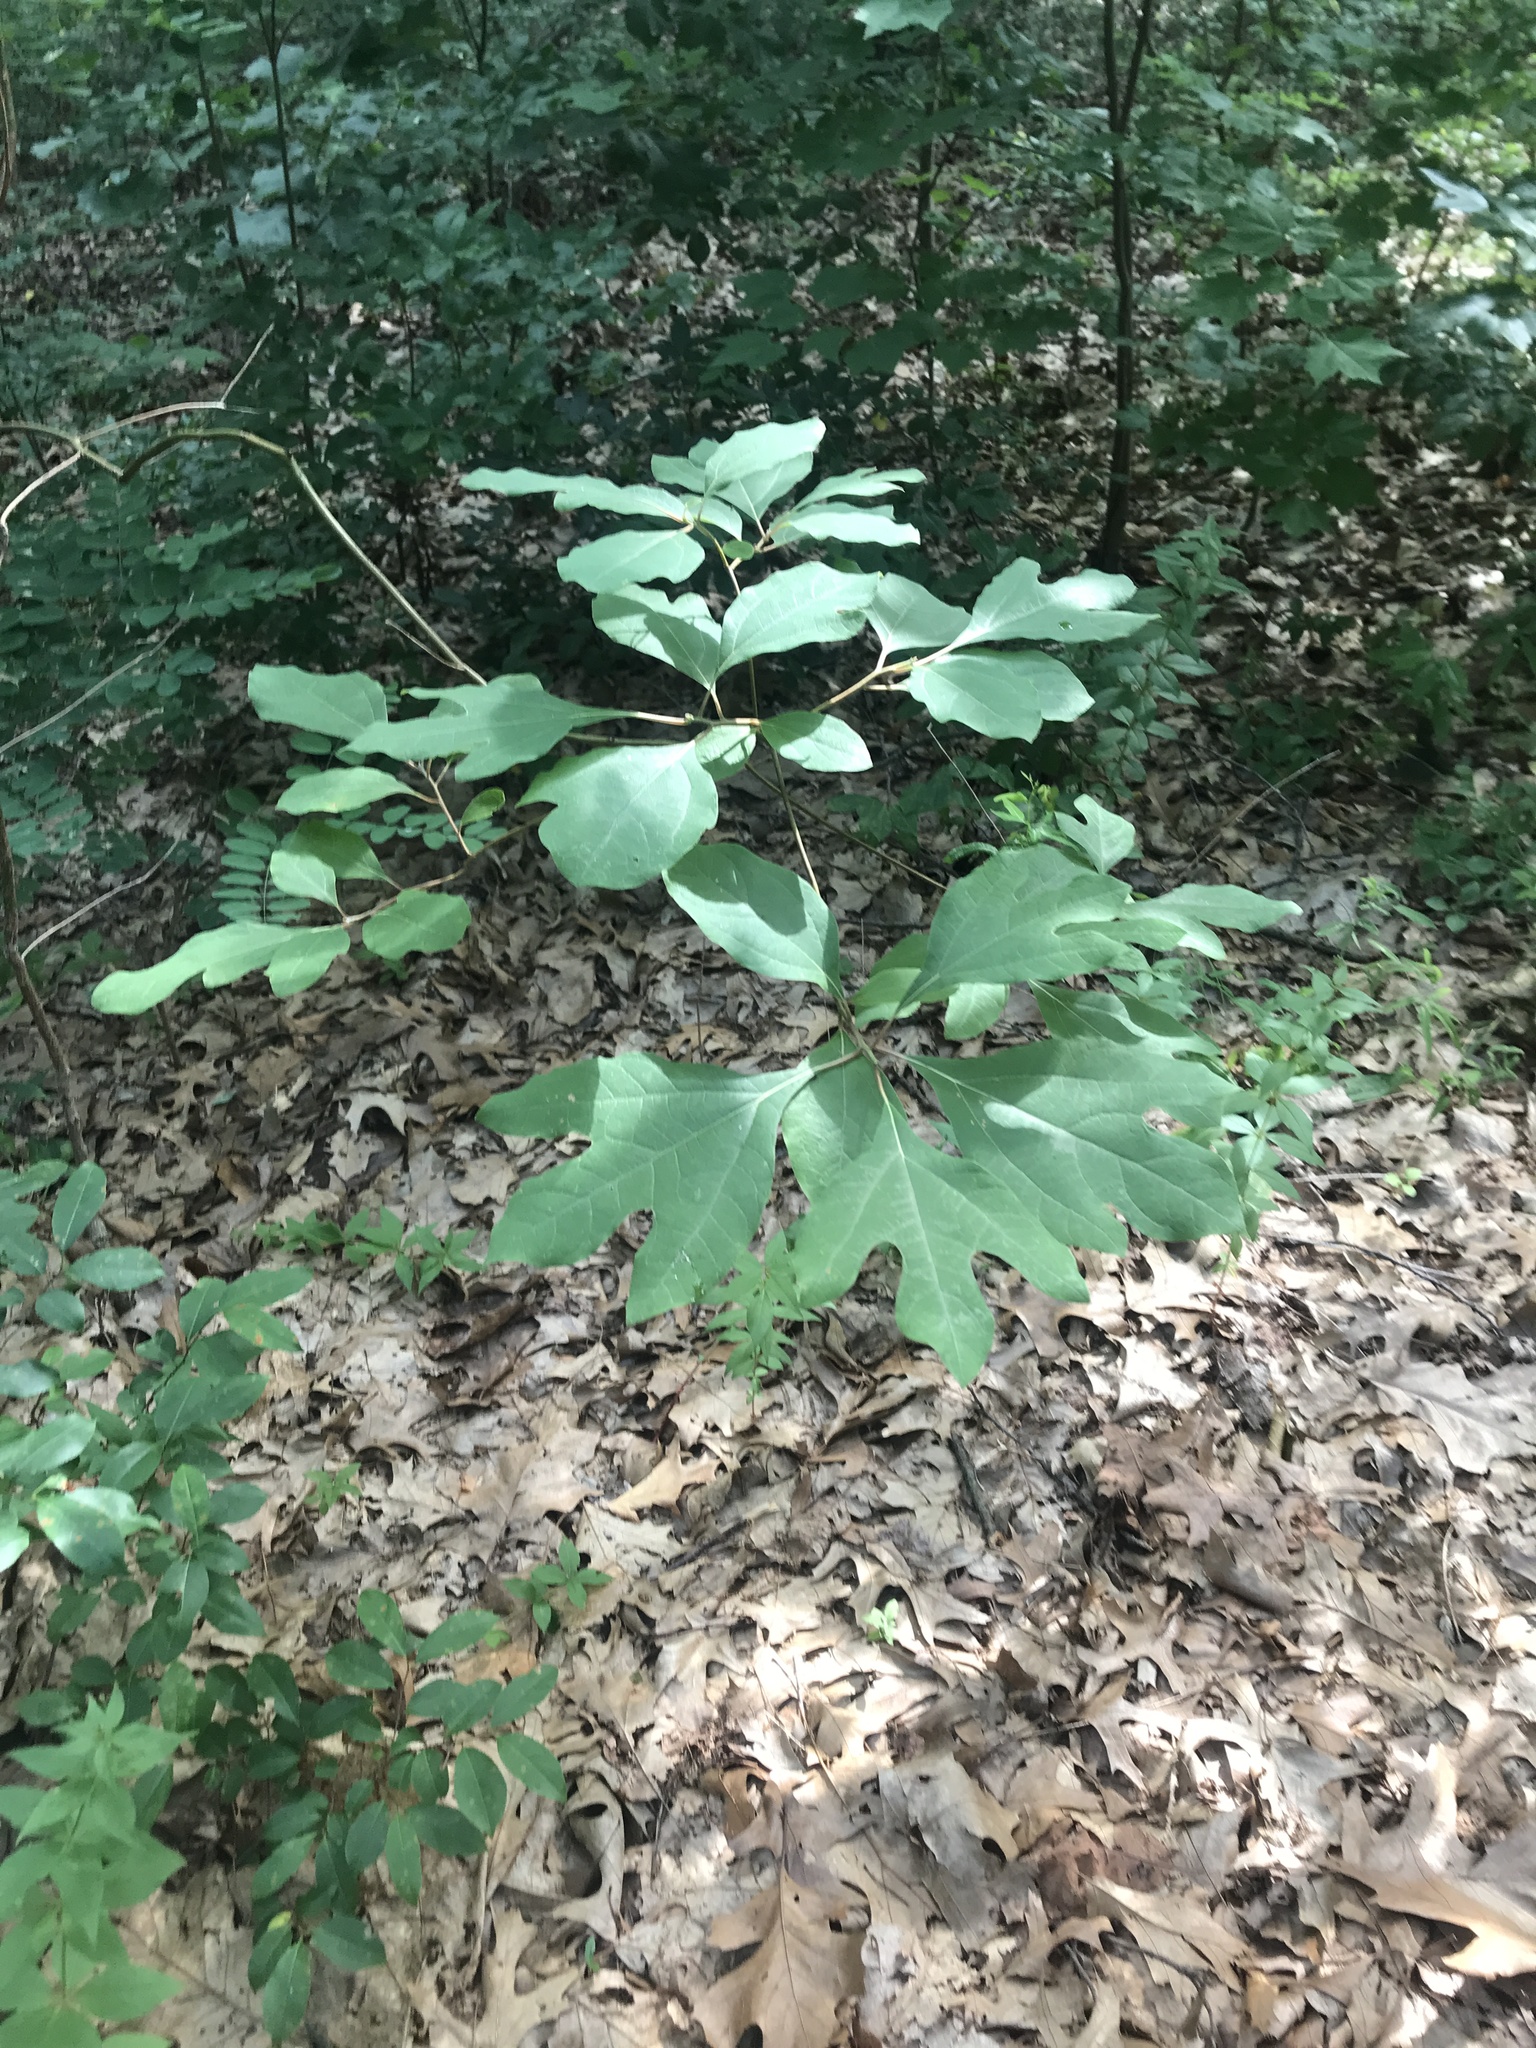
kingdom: Plantae
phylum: Tracheophyta
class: Magnoliopsida
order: Laurales
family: Lauraceae
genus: Sassafras
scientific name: Sassafras albidum
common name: Sassafras
